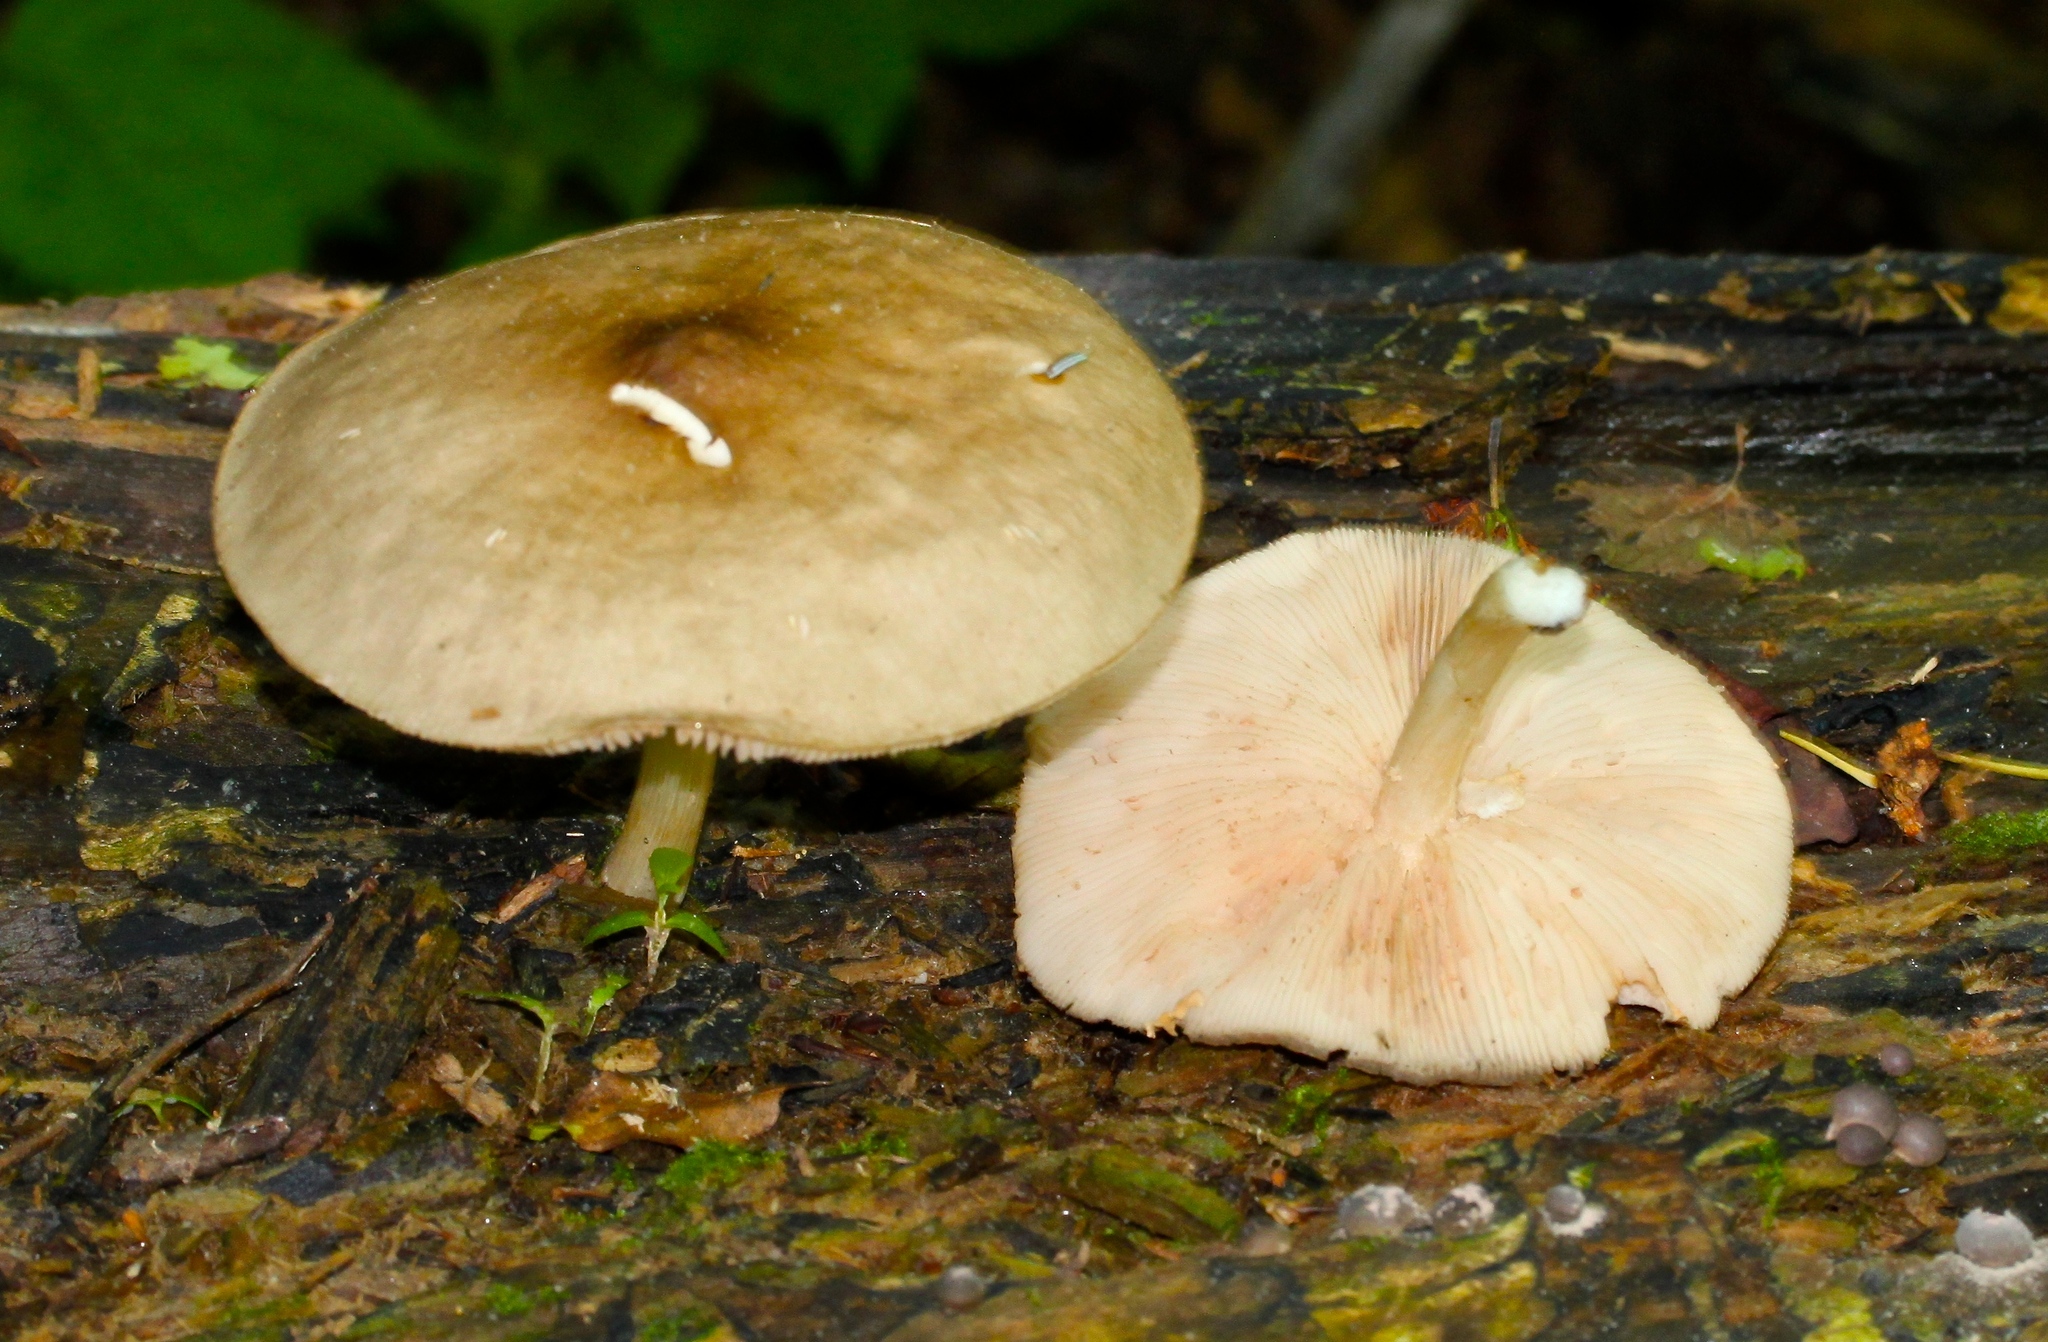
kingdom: Fungi
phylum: Basidiomycota
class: Agaricomycetes
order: Agaricales
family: Pluteaceae
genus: Pluteus
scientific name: Pluteus cervinus
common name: Deer shield
